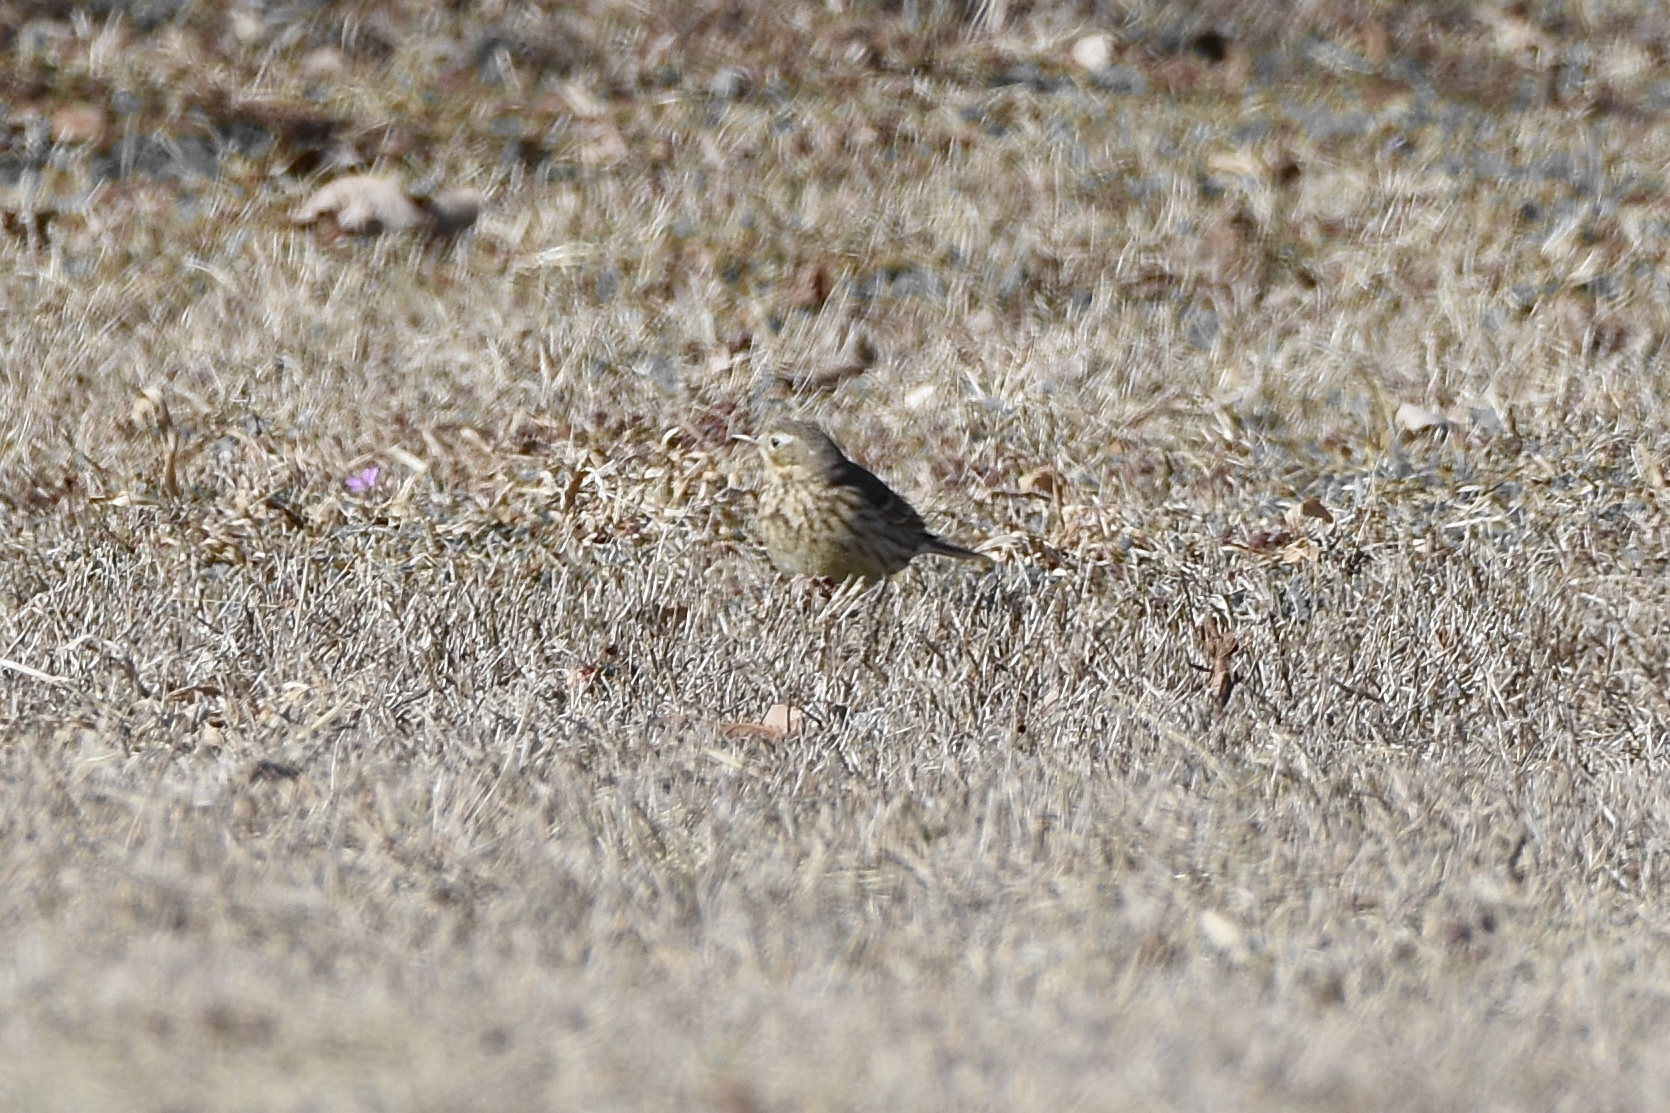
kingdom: Animalia
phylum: Chordata
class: Aves
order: Passeriformes
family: Motacillidae
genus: Anthus
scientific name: Anthus rubescens
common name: Buff-bellied pipit
